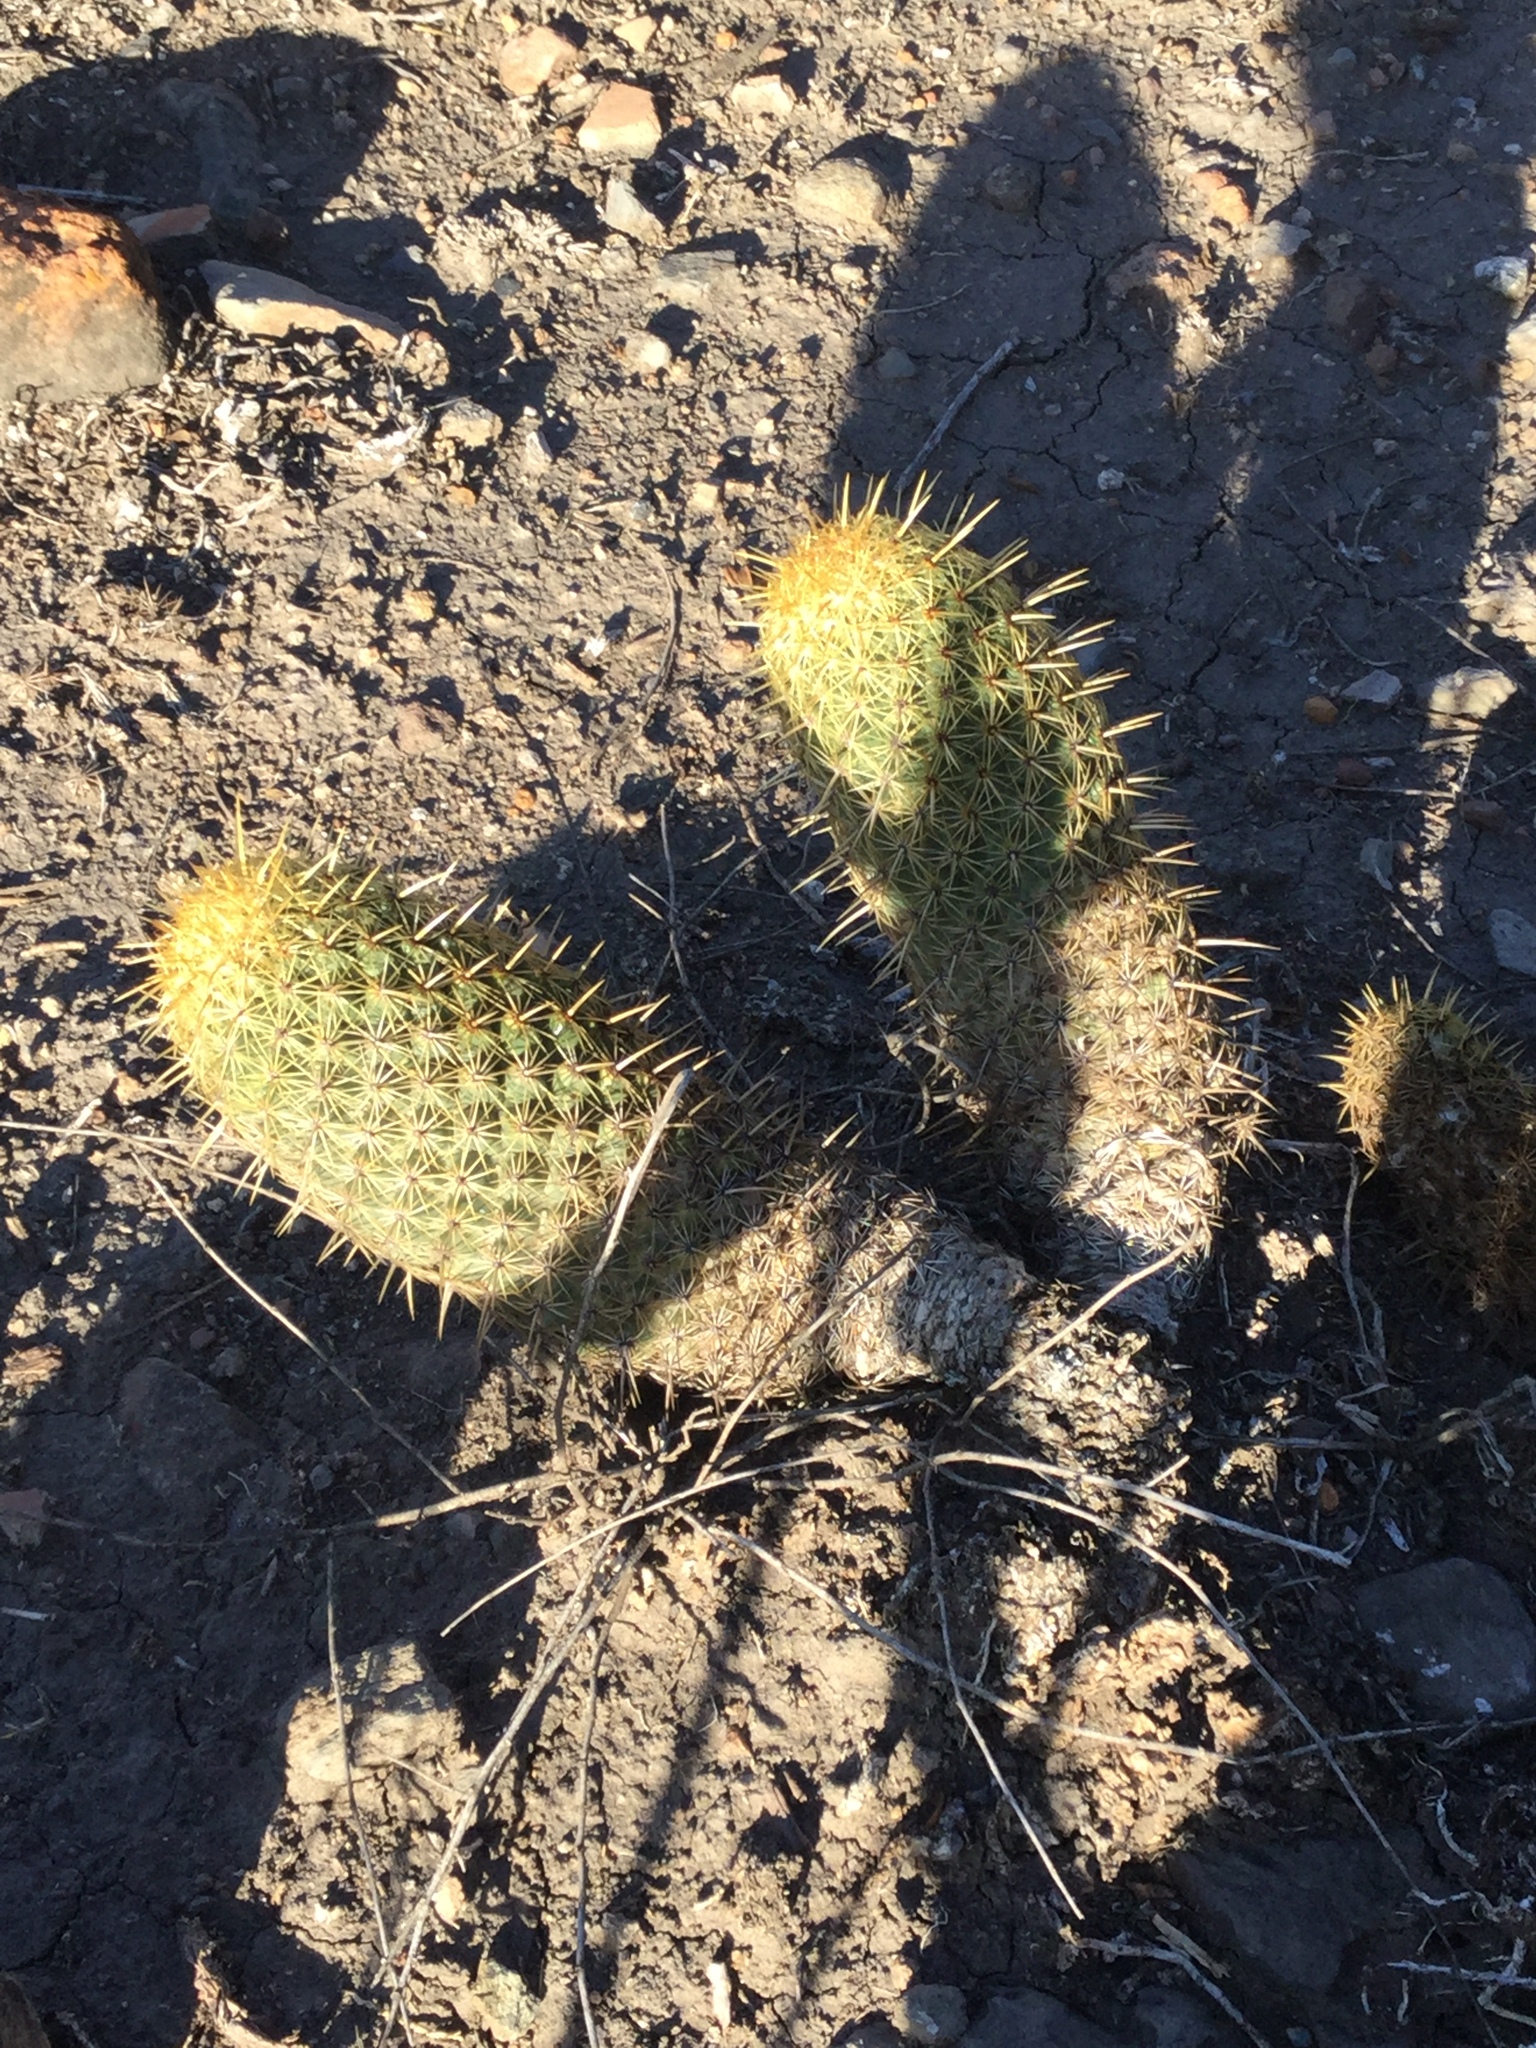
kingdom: Plantae
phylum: Tracheophyta
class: Magnoliopsida
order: Caryophyllales
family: Cactaceae
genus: Coryphantha
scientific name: Coryphantha erecta
